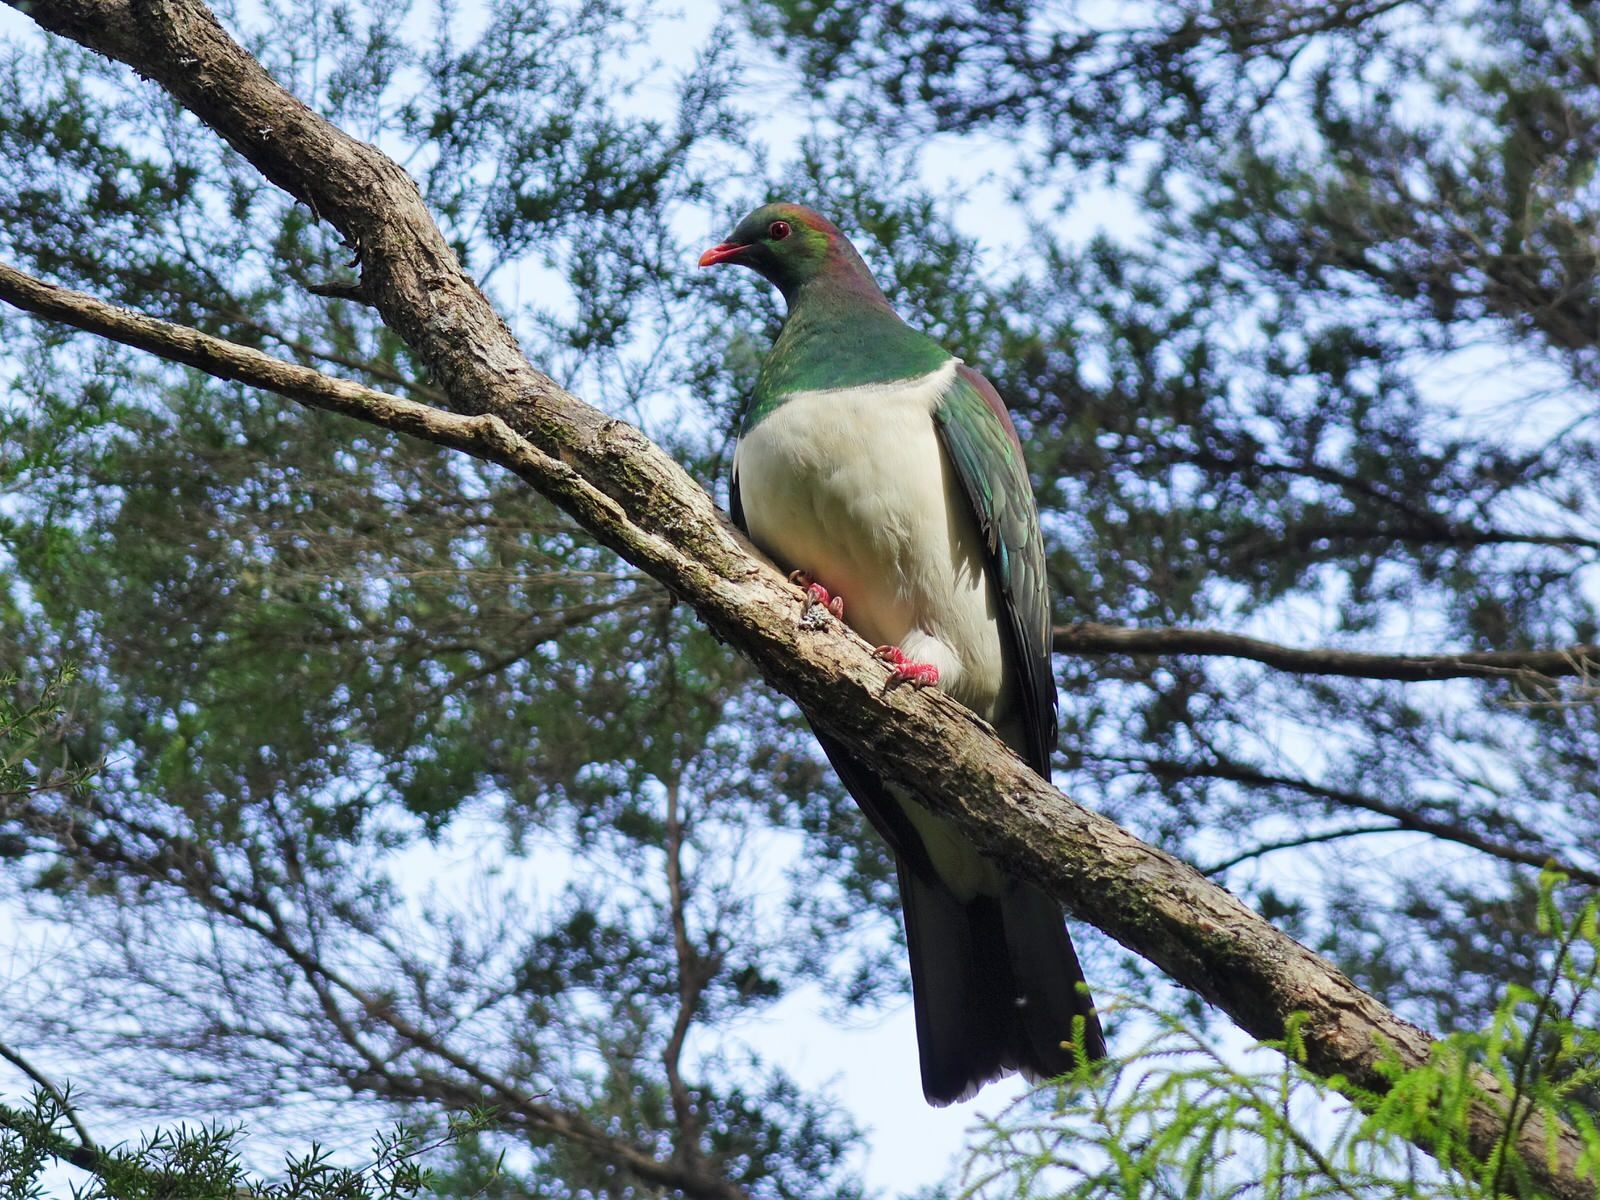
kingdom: Animalia
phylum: Chordata
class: Aves
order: Columbiformes
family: Columbidae
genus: Hemiphaga
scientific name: Hemiphaga novaeseelandiae
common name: New zealand pigeon
